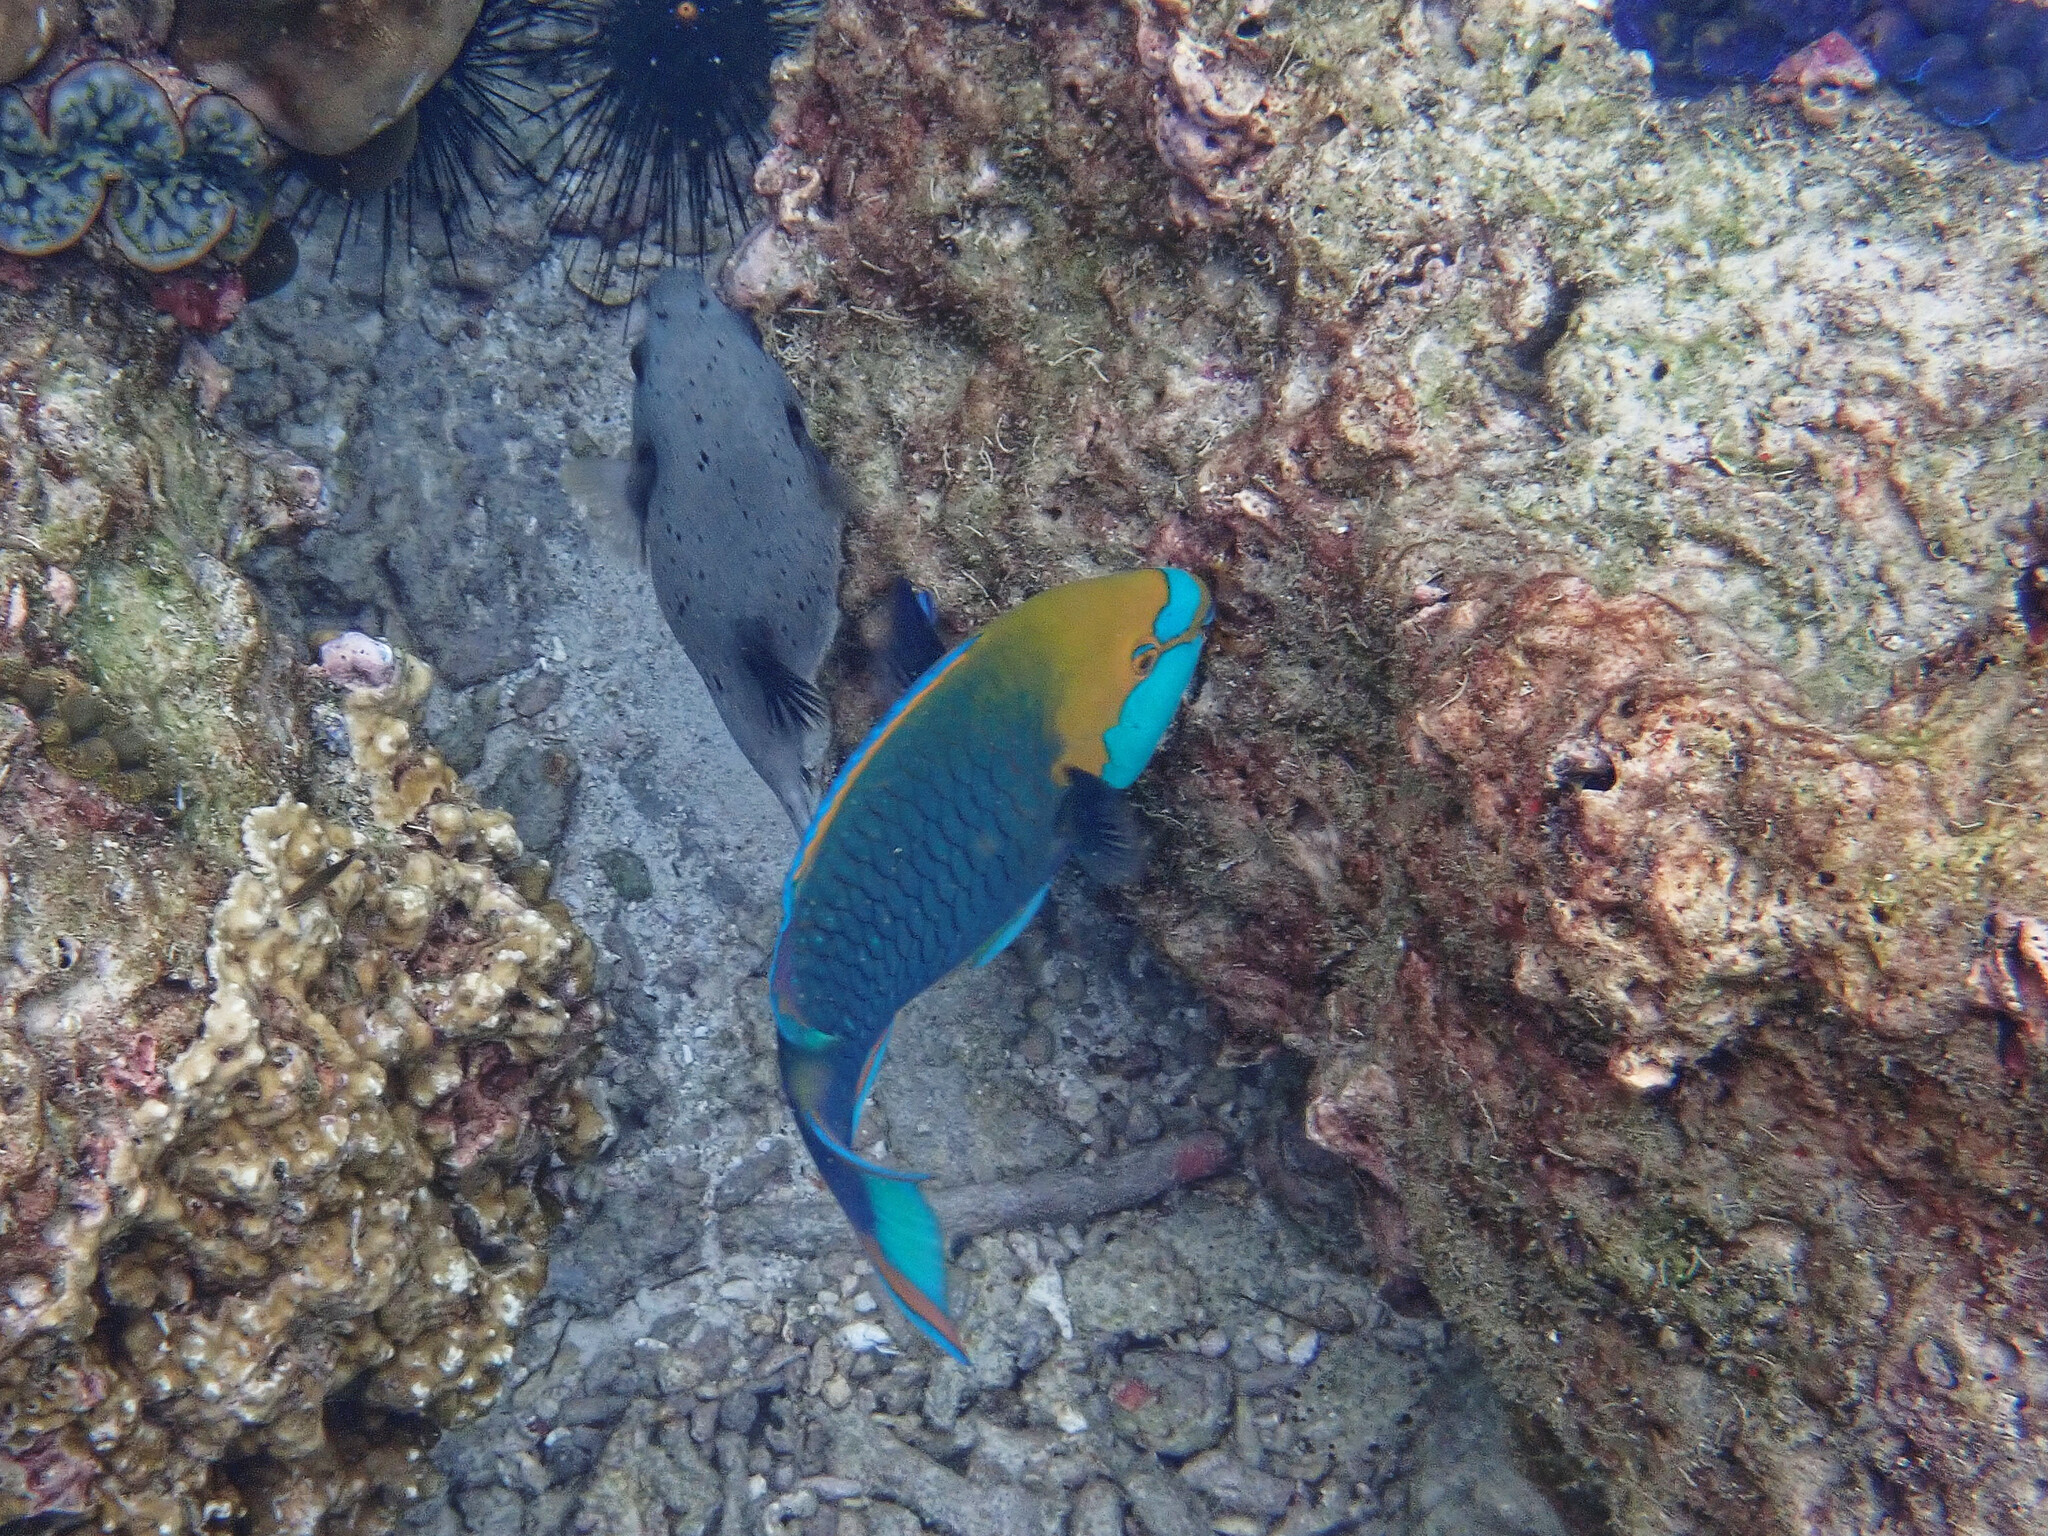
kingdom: Animalia
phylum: Chordata
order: Perciformes
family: Scaridae
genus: Scarus
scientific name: Scarus prasiognathos
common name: Singapore parrotfish
